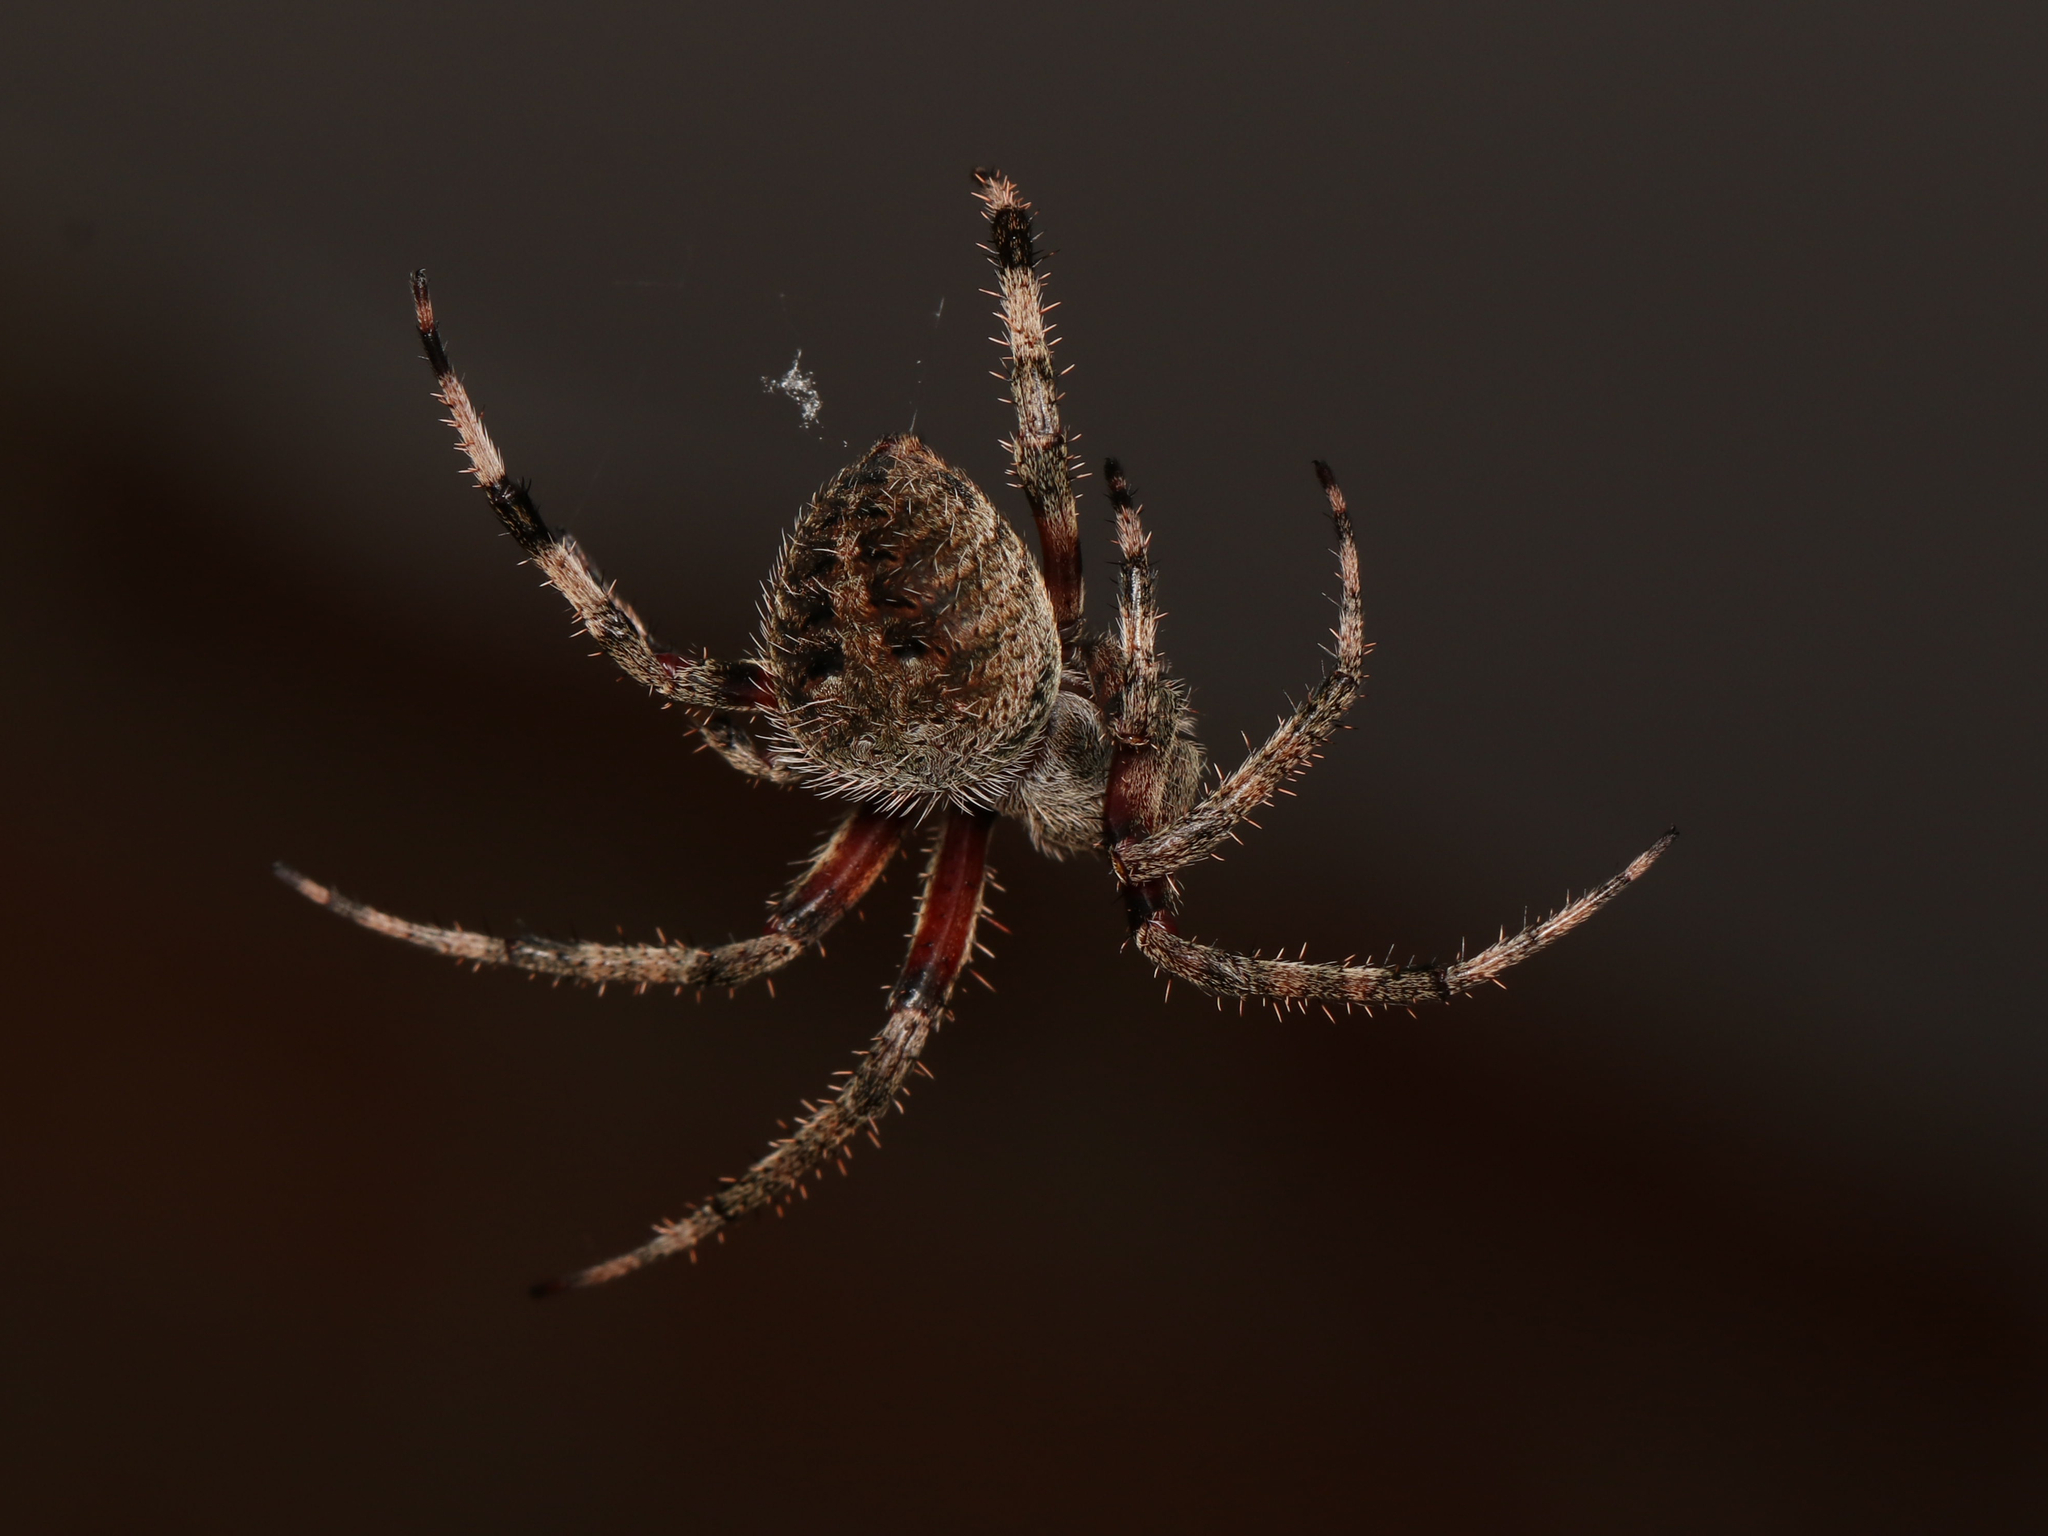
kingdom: Animalia
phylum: Arthropoda
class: Arachnida
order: Araneae
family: Araneidae
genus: Neoscona
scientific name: Neoscona crucifera
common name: Spotted orbweaver
